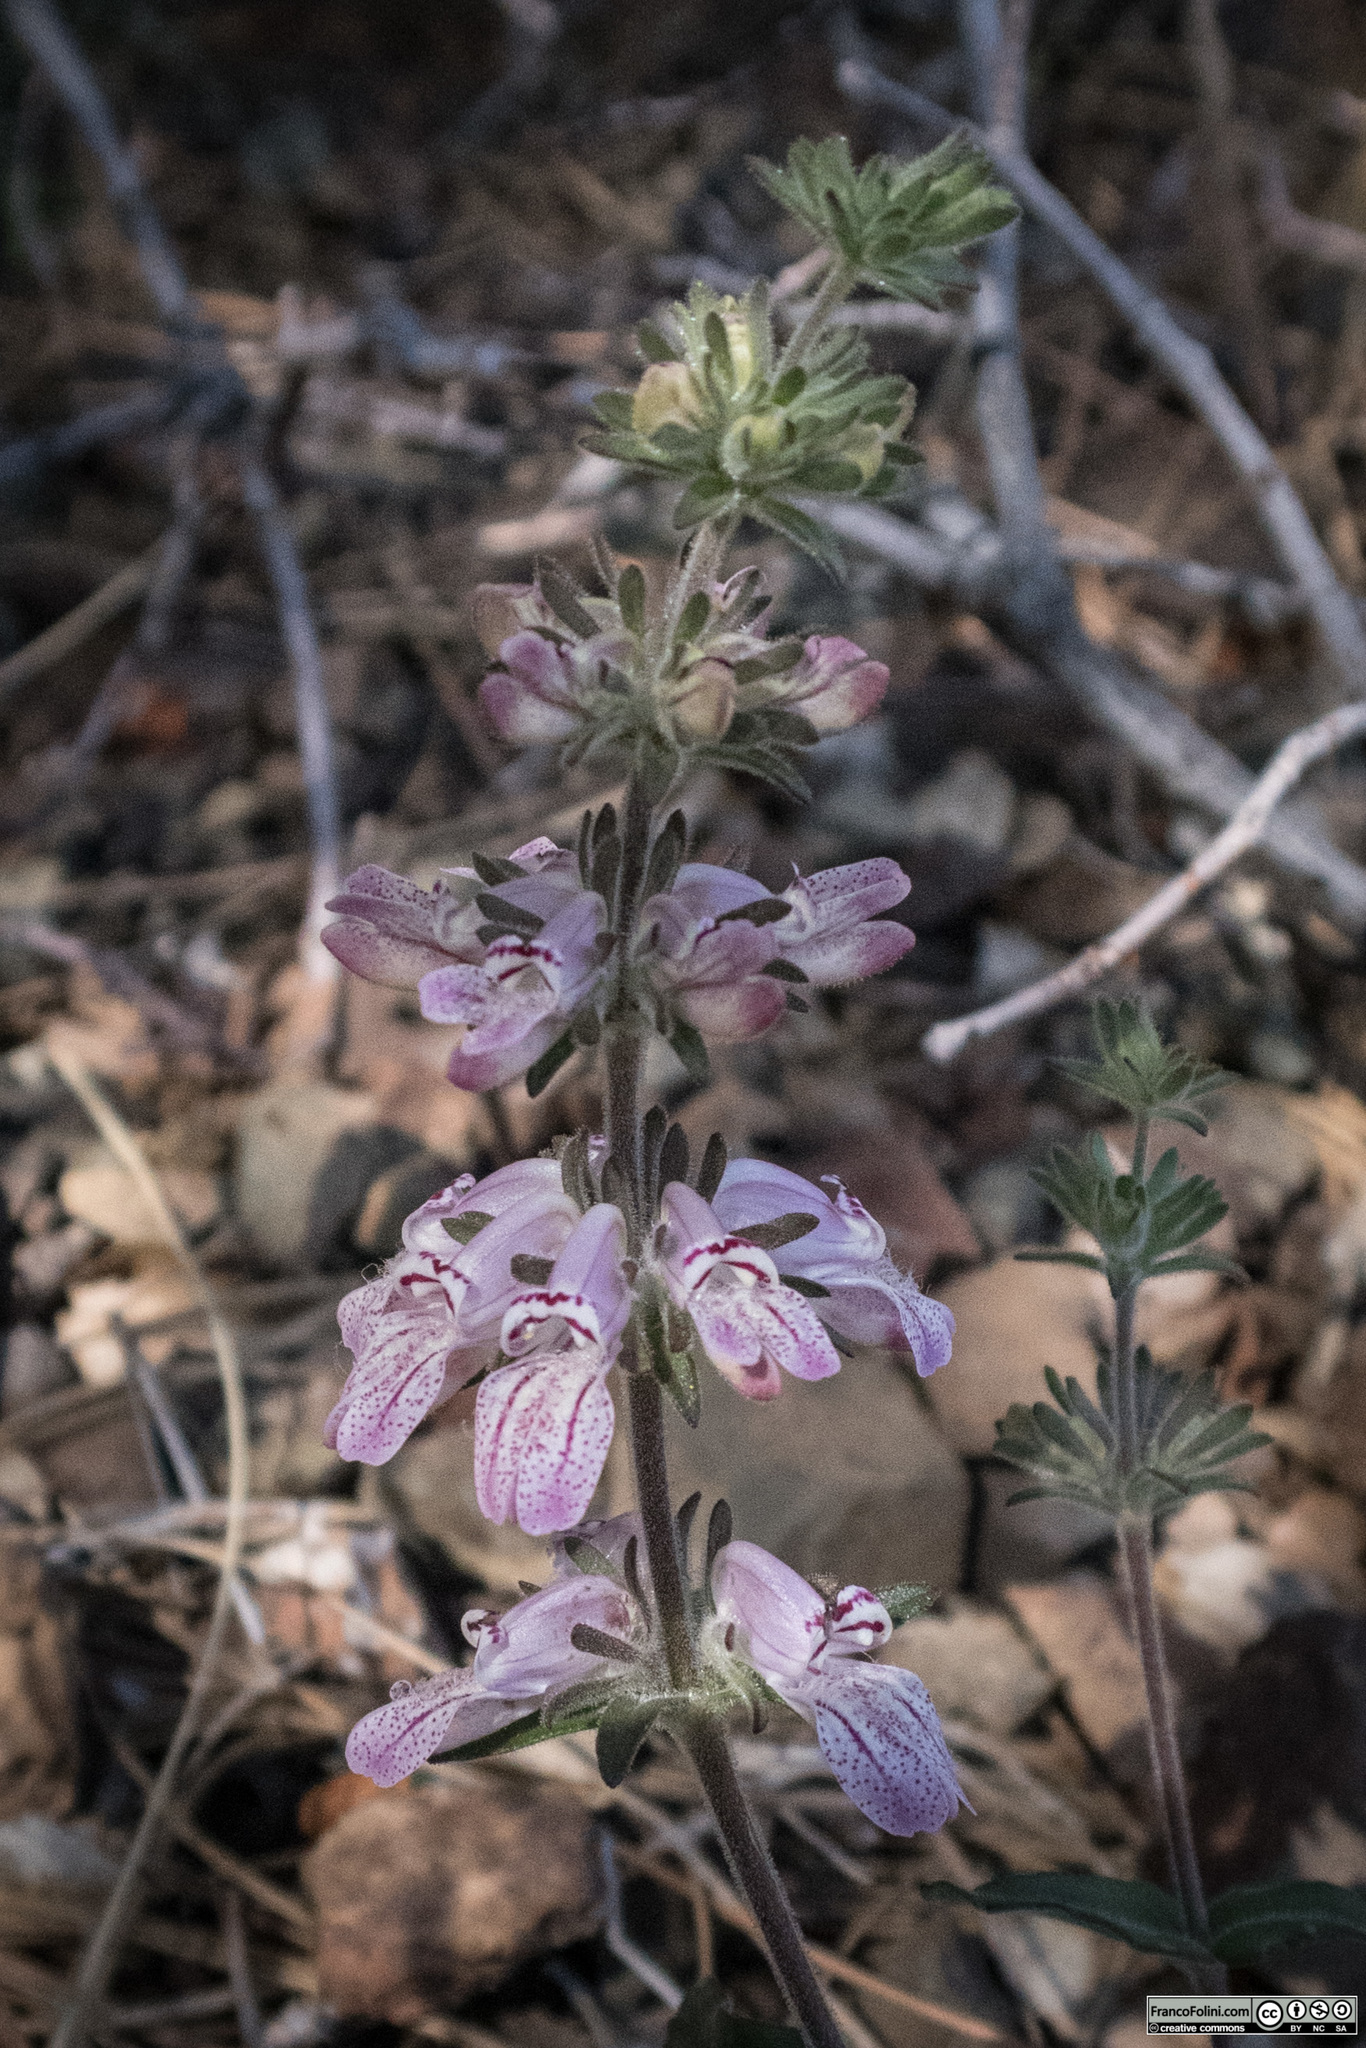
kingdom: Plantae
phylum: Tracheophyta
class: Magnoliopsida
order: Lamiales
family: Plantaginaceae
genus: Collinsia
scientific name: Collinsia tinctoria
